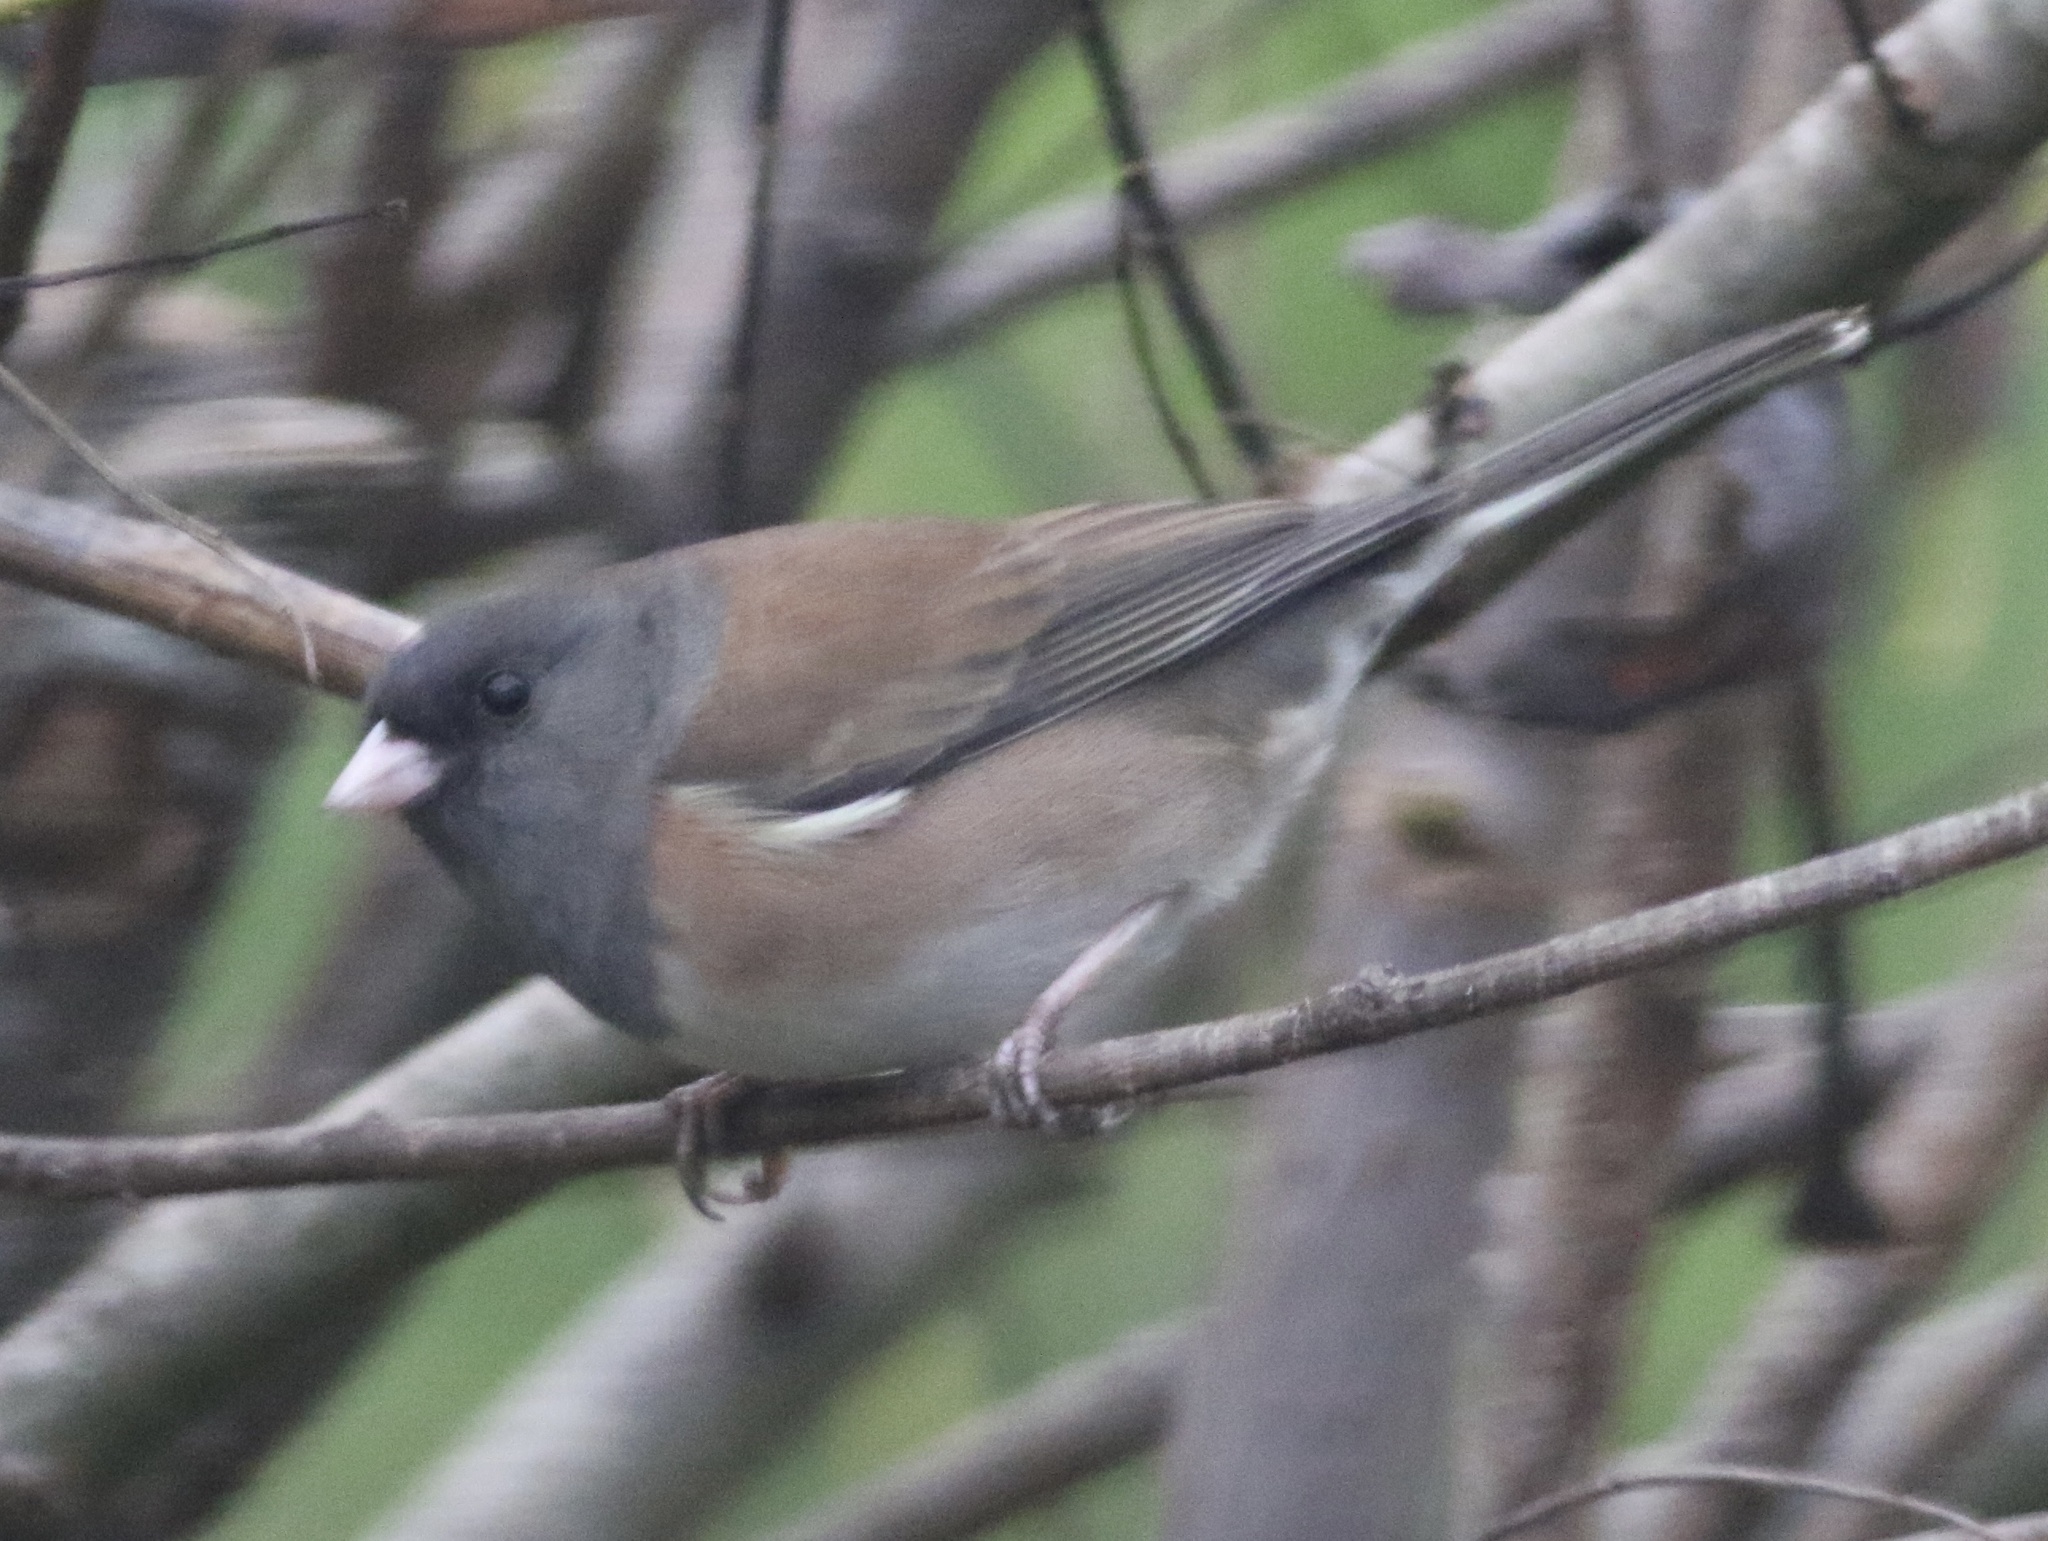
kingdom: Animalia
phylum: Chordata
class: Aves
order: Passeriformes
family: Passerellidae
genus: Junco
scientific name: Junco hyemalis
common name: Dark-eyed junco
